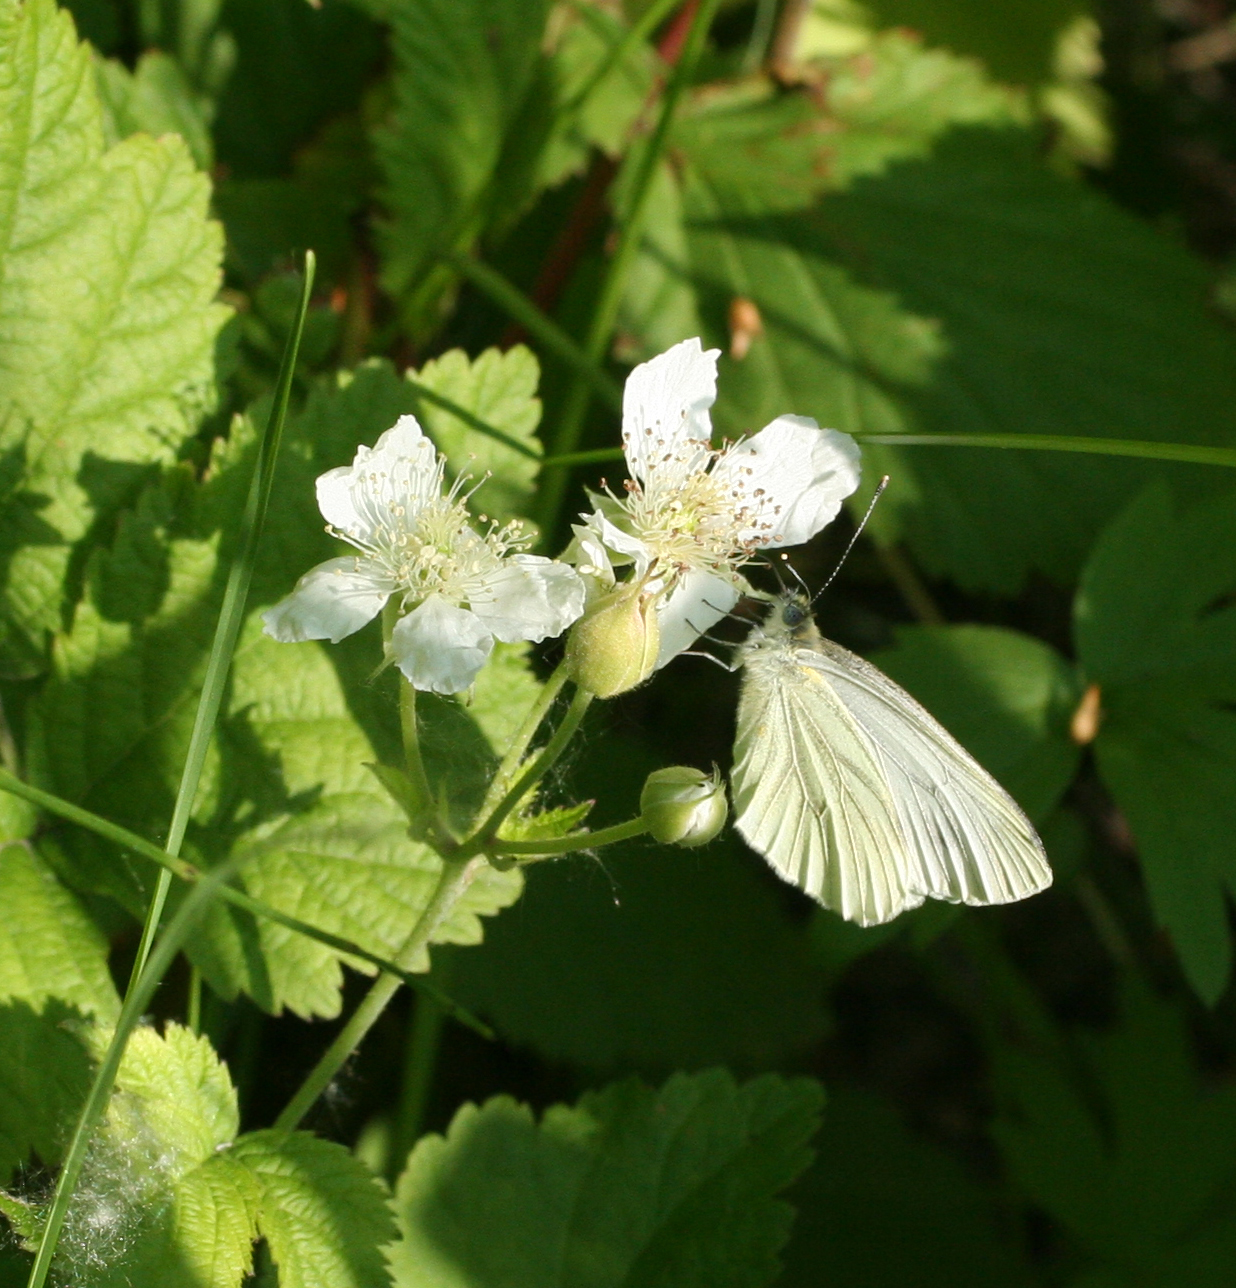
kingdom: Animalia
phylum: Arthropoda
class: Insecta
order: Lepidoptera
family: Pieridae
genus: Pieris
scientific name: Pieris napi
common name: Green-veined white
